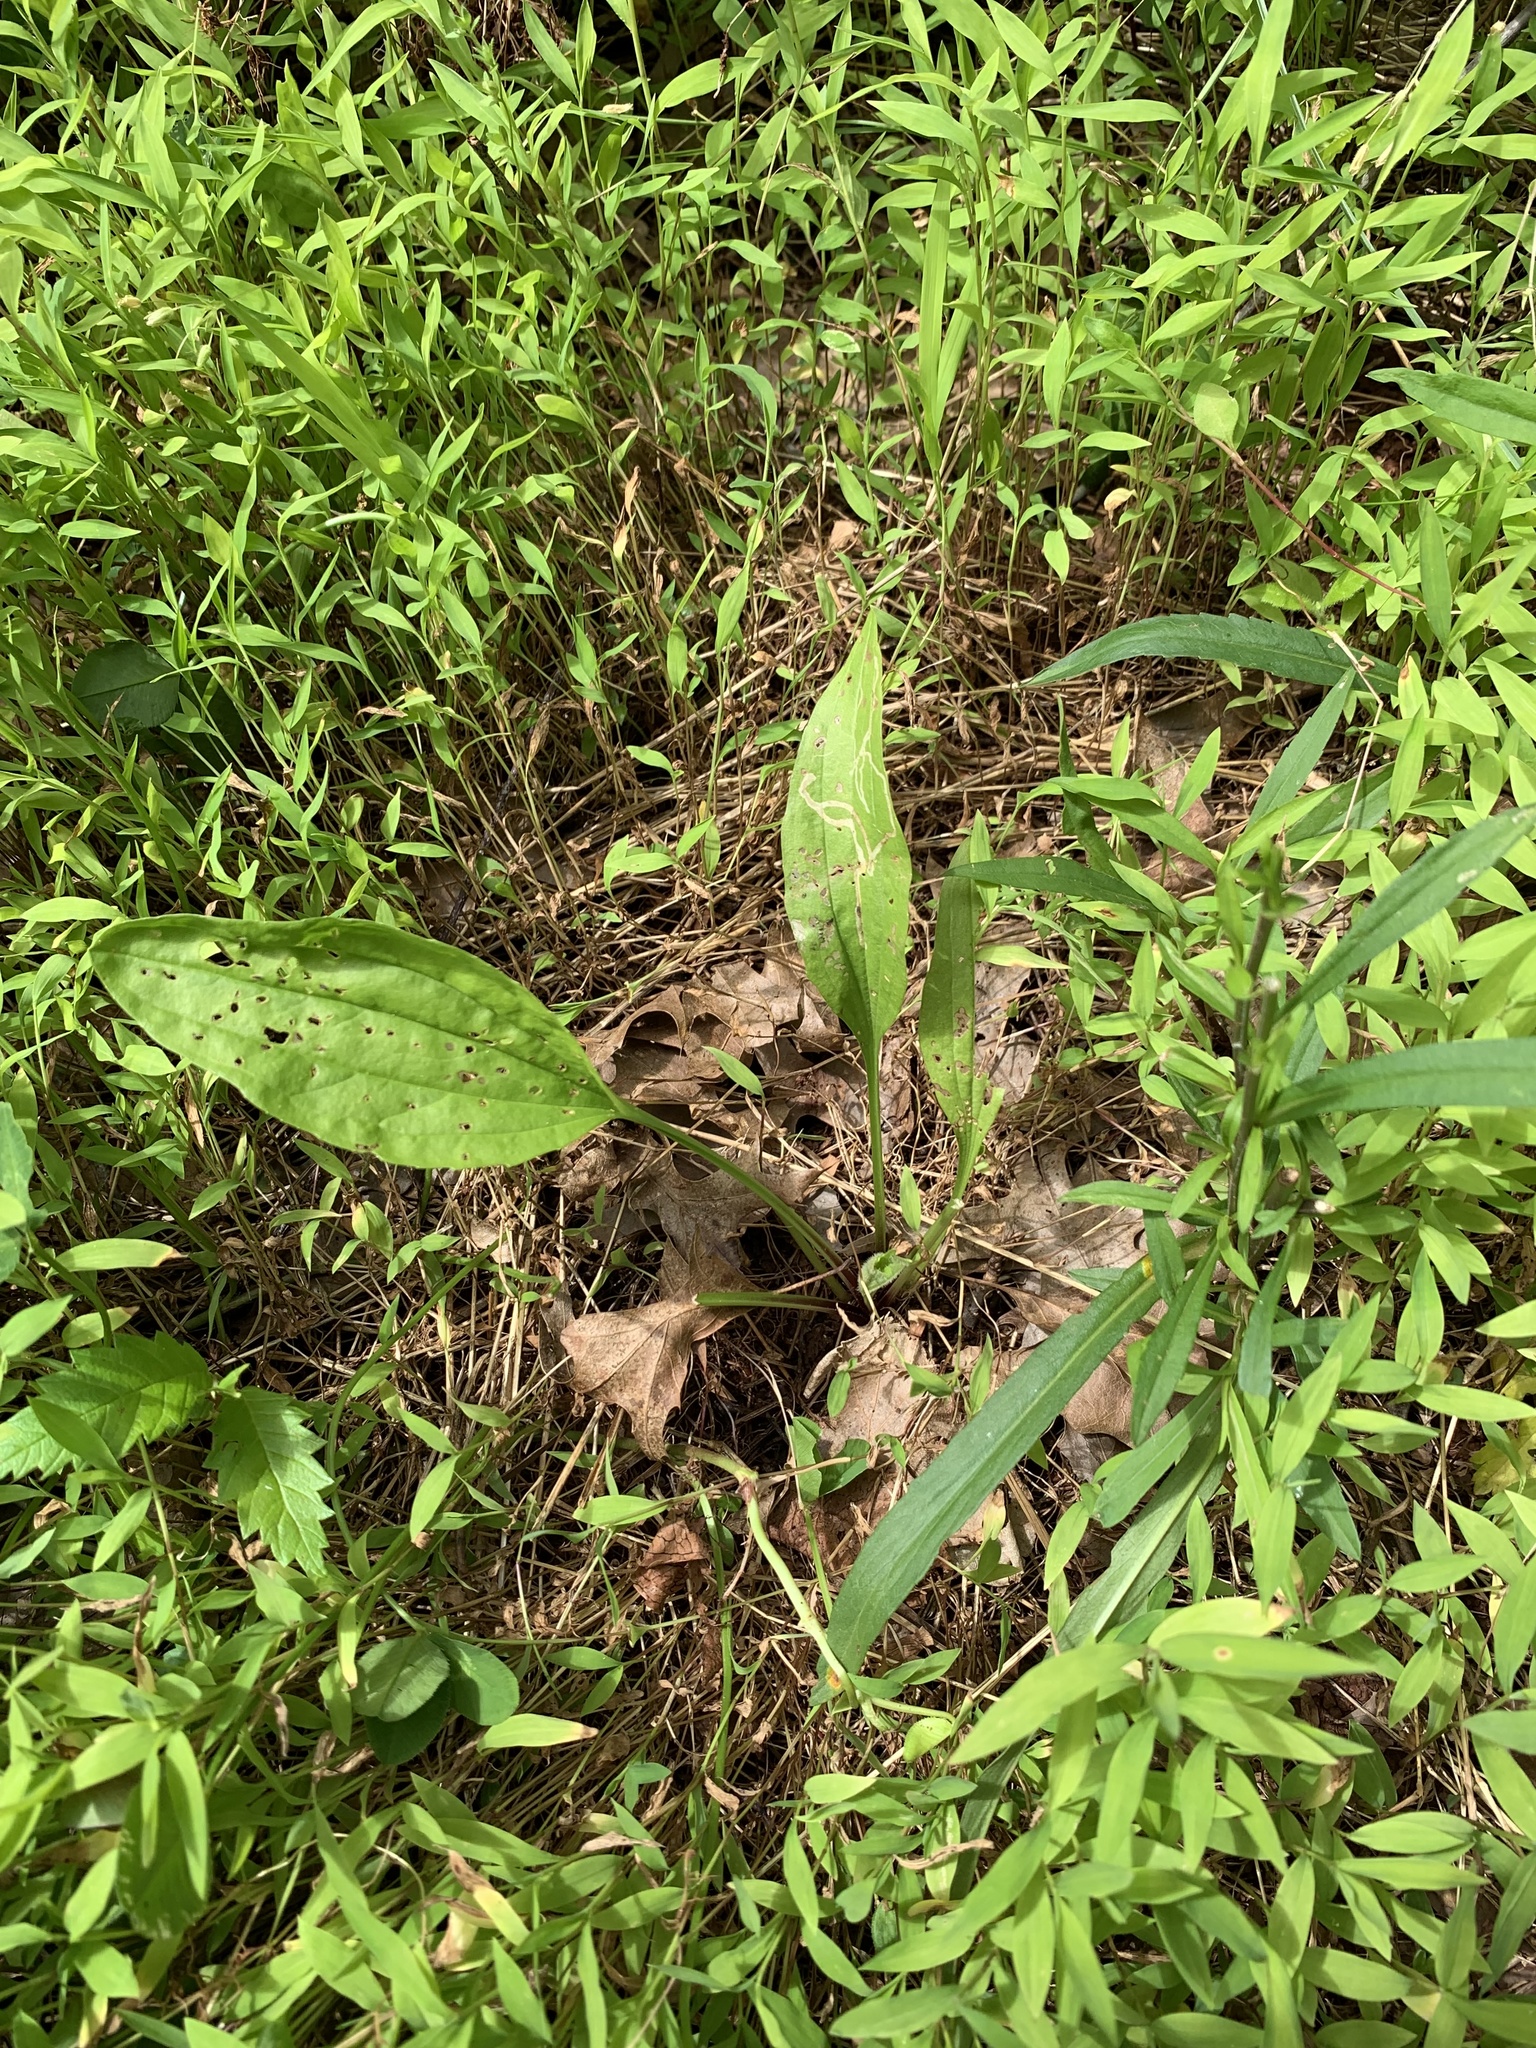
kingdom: Animalia
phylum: Arthropoda
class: Insecta
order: Diptera
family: Agromyzidae
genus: Phytomyza
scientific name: Phytomyza plantaginis
